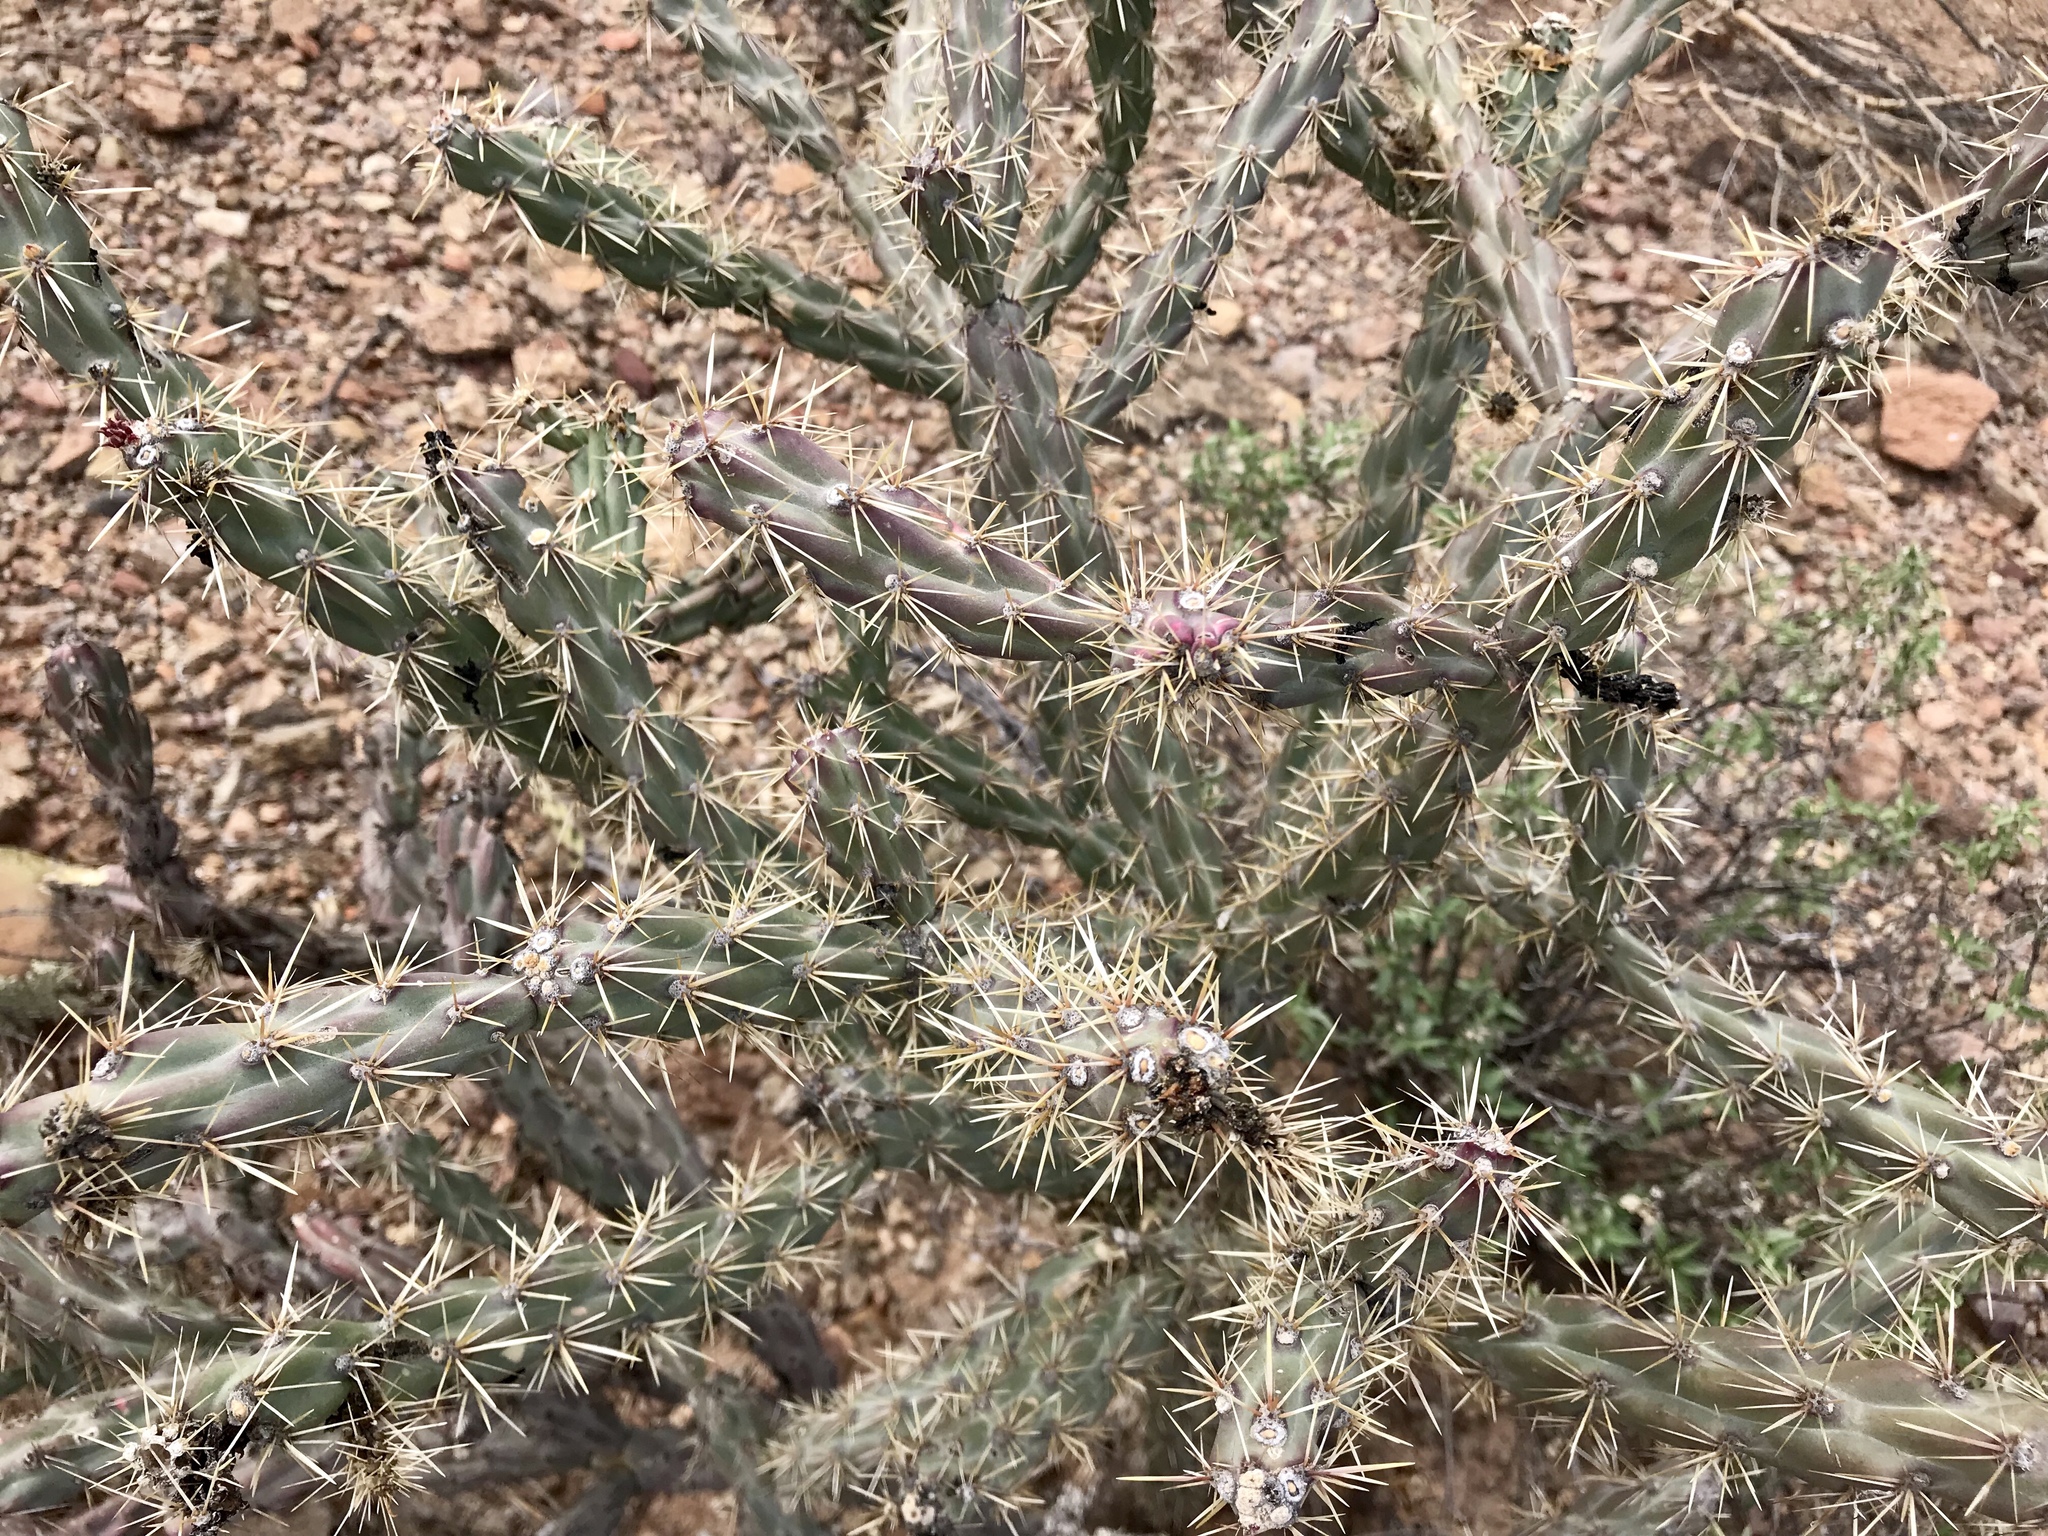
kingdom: Plantae
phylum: Tracheophyta
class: Magnoliopsida
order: Caryophyllales
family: Cactaceae
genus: Cylindropuntia
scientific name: Cylindropuntia acanthocarpa
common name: Buckhorn cholla
